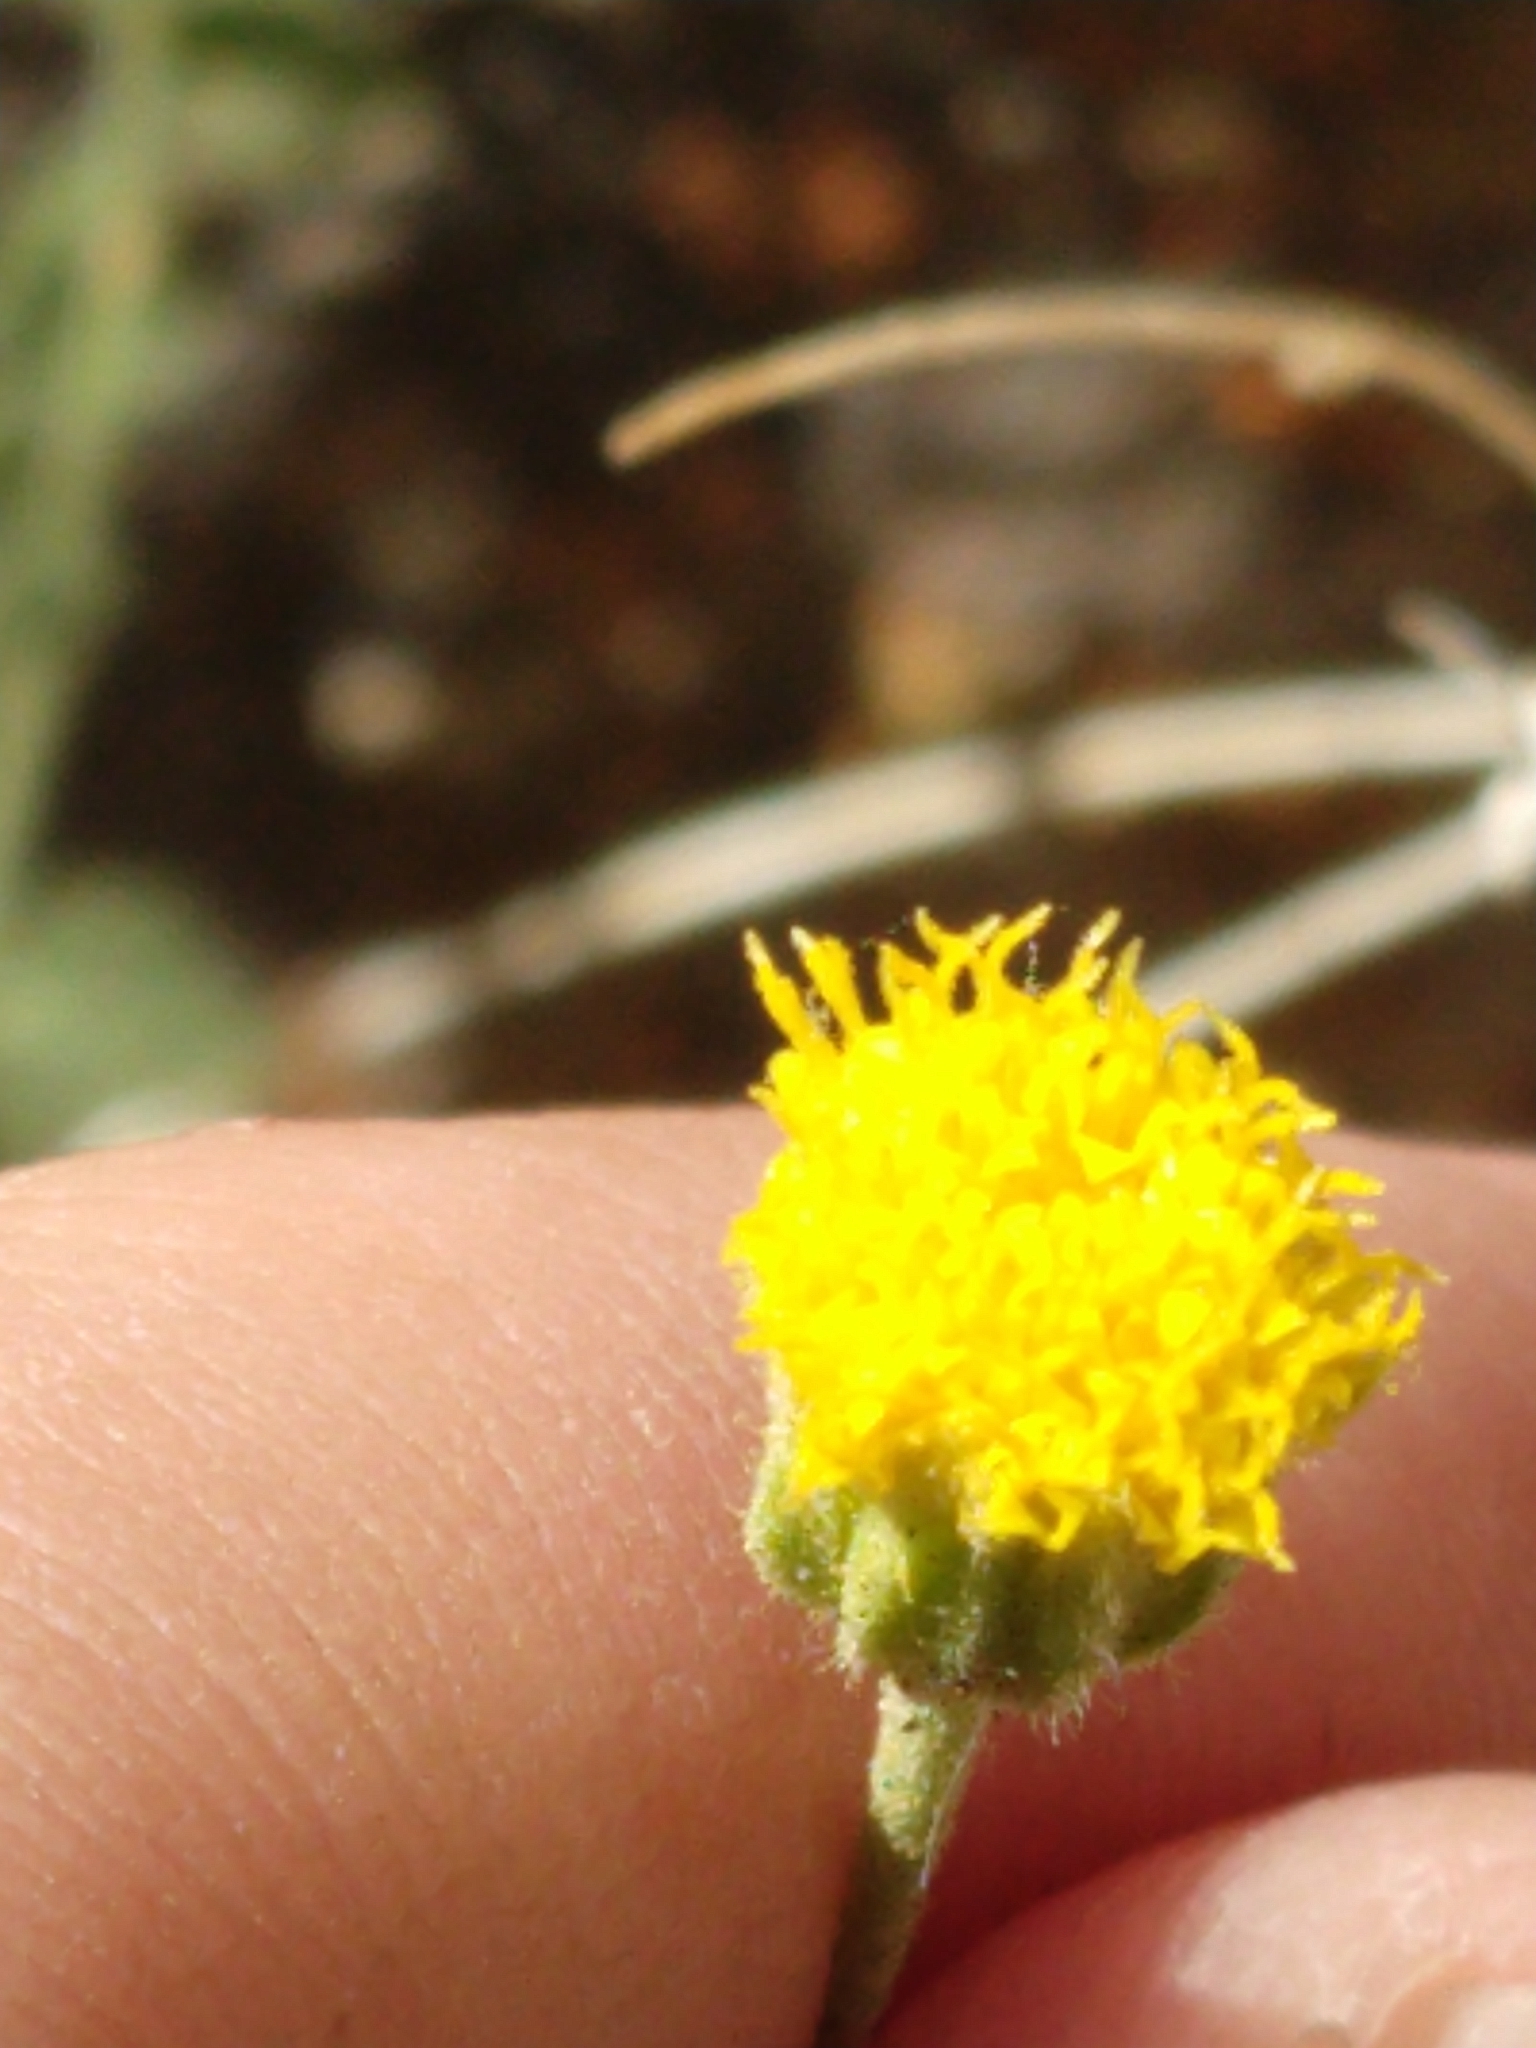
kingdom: Plantae
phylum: Tracheophyta
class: Magnoliopsida
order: Asterales
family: Asteraceae
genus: Laphamia
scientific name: Laphamia inyoensis
